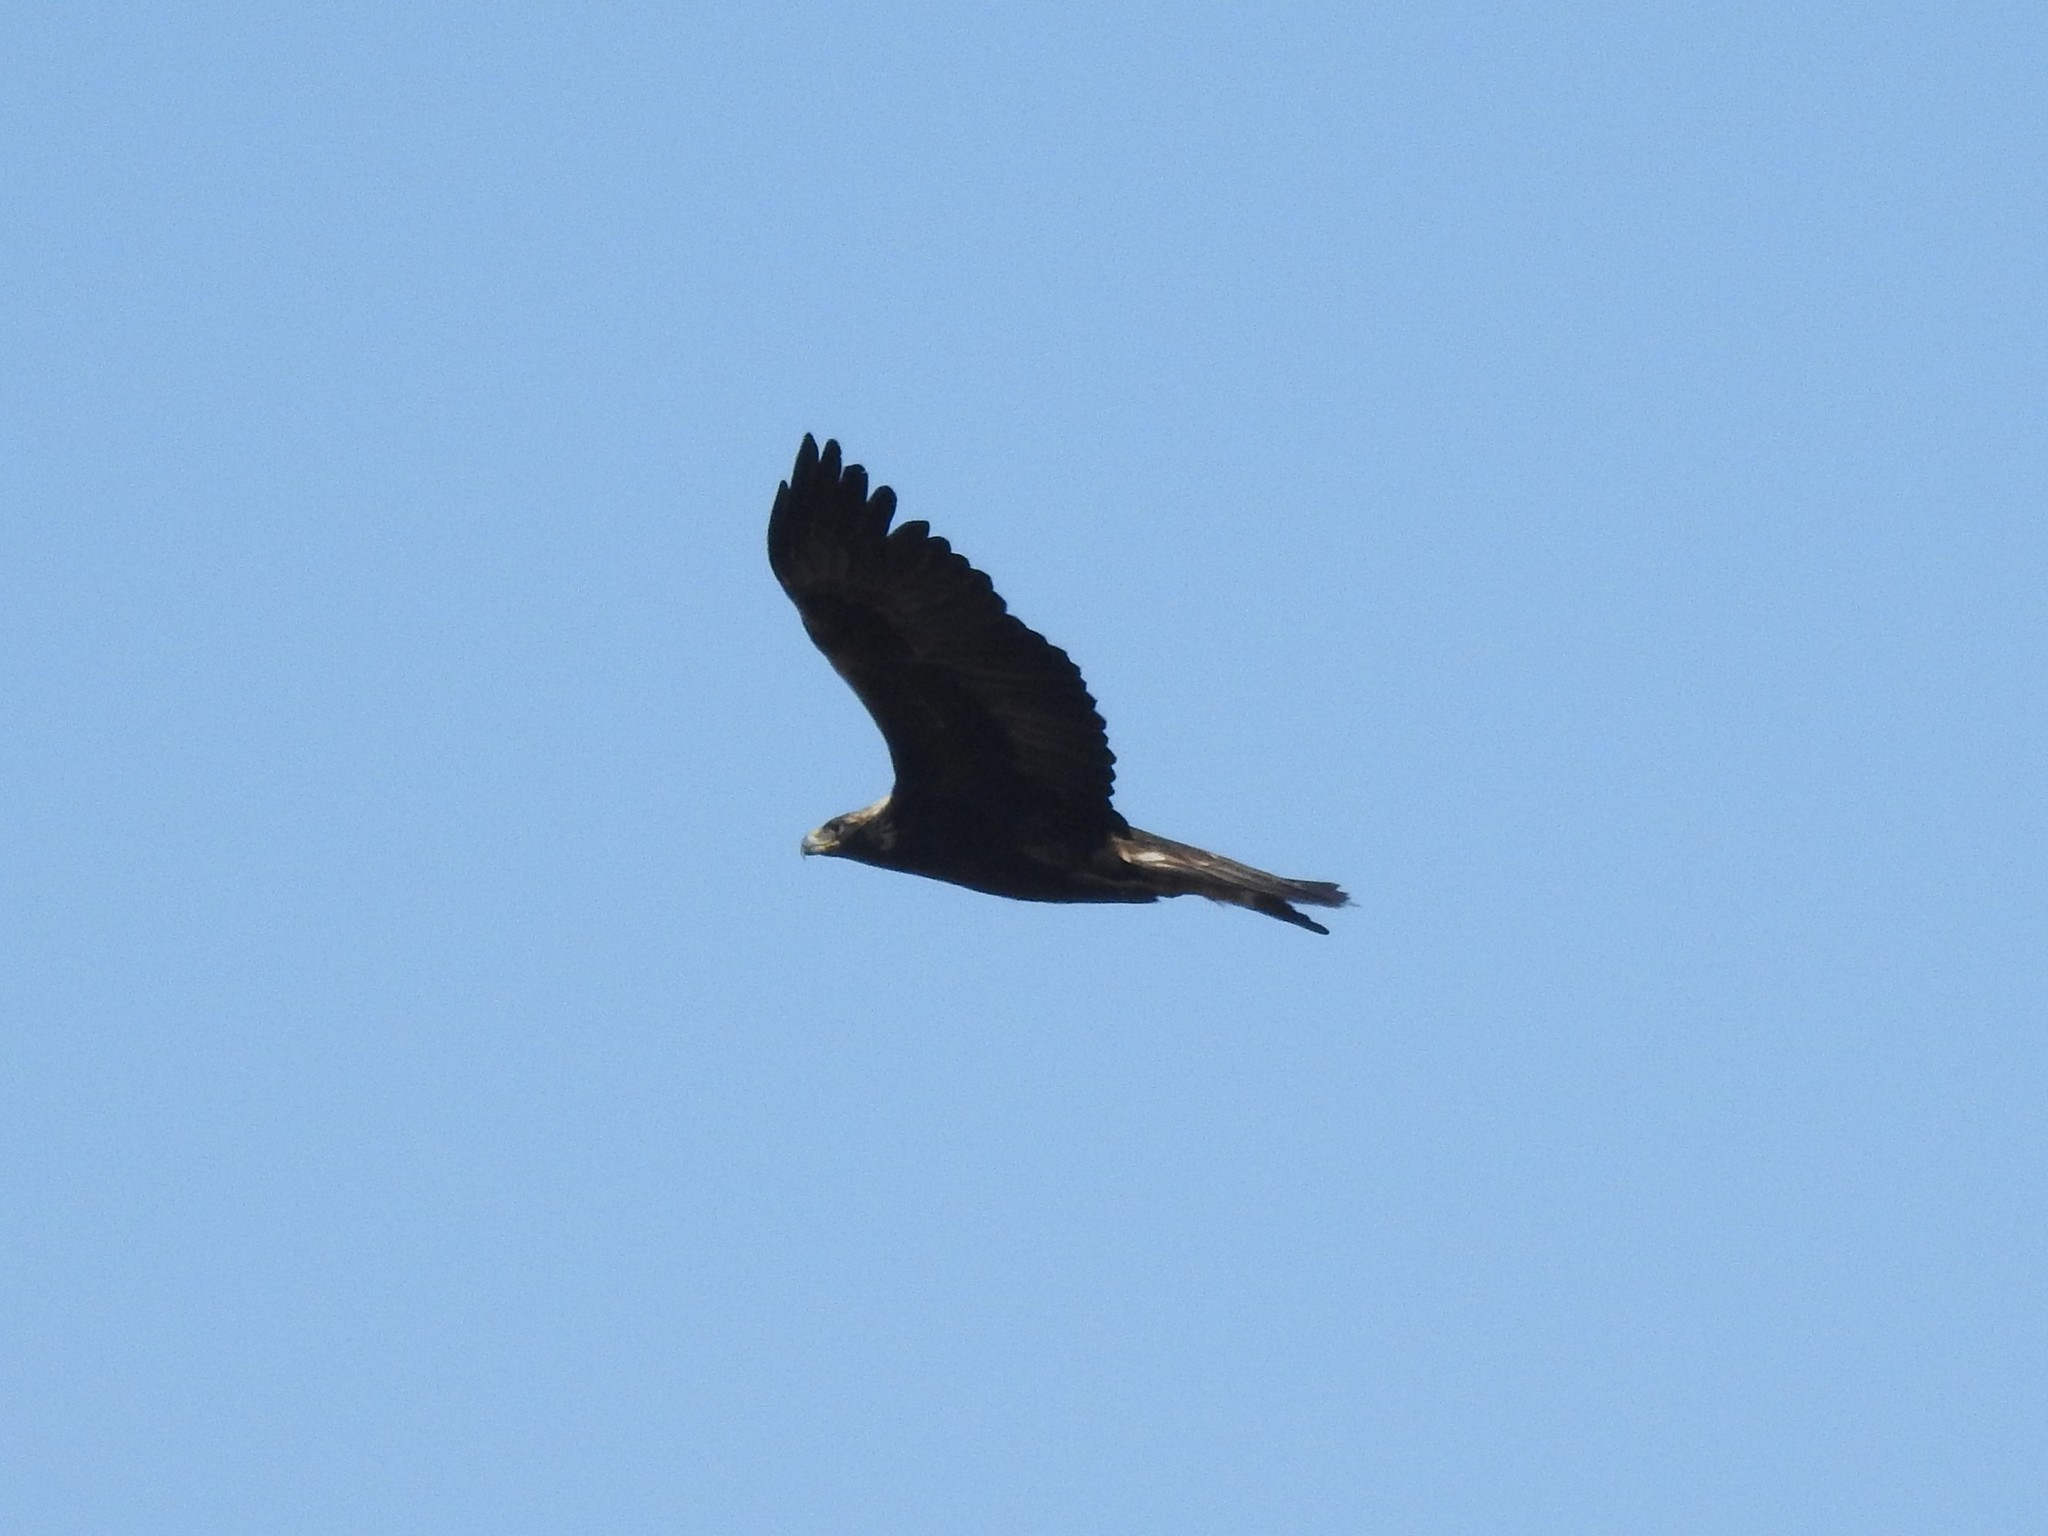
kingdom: Animalia
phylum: Chordata
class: Aves
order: Accipitriformes
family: Accipitridae
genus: Aquila
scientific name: Aquila chrysaetos
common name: Golden eagle
